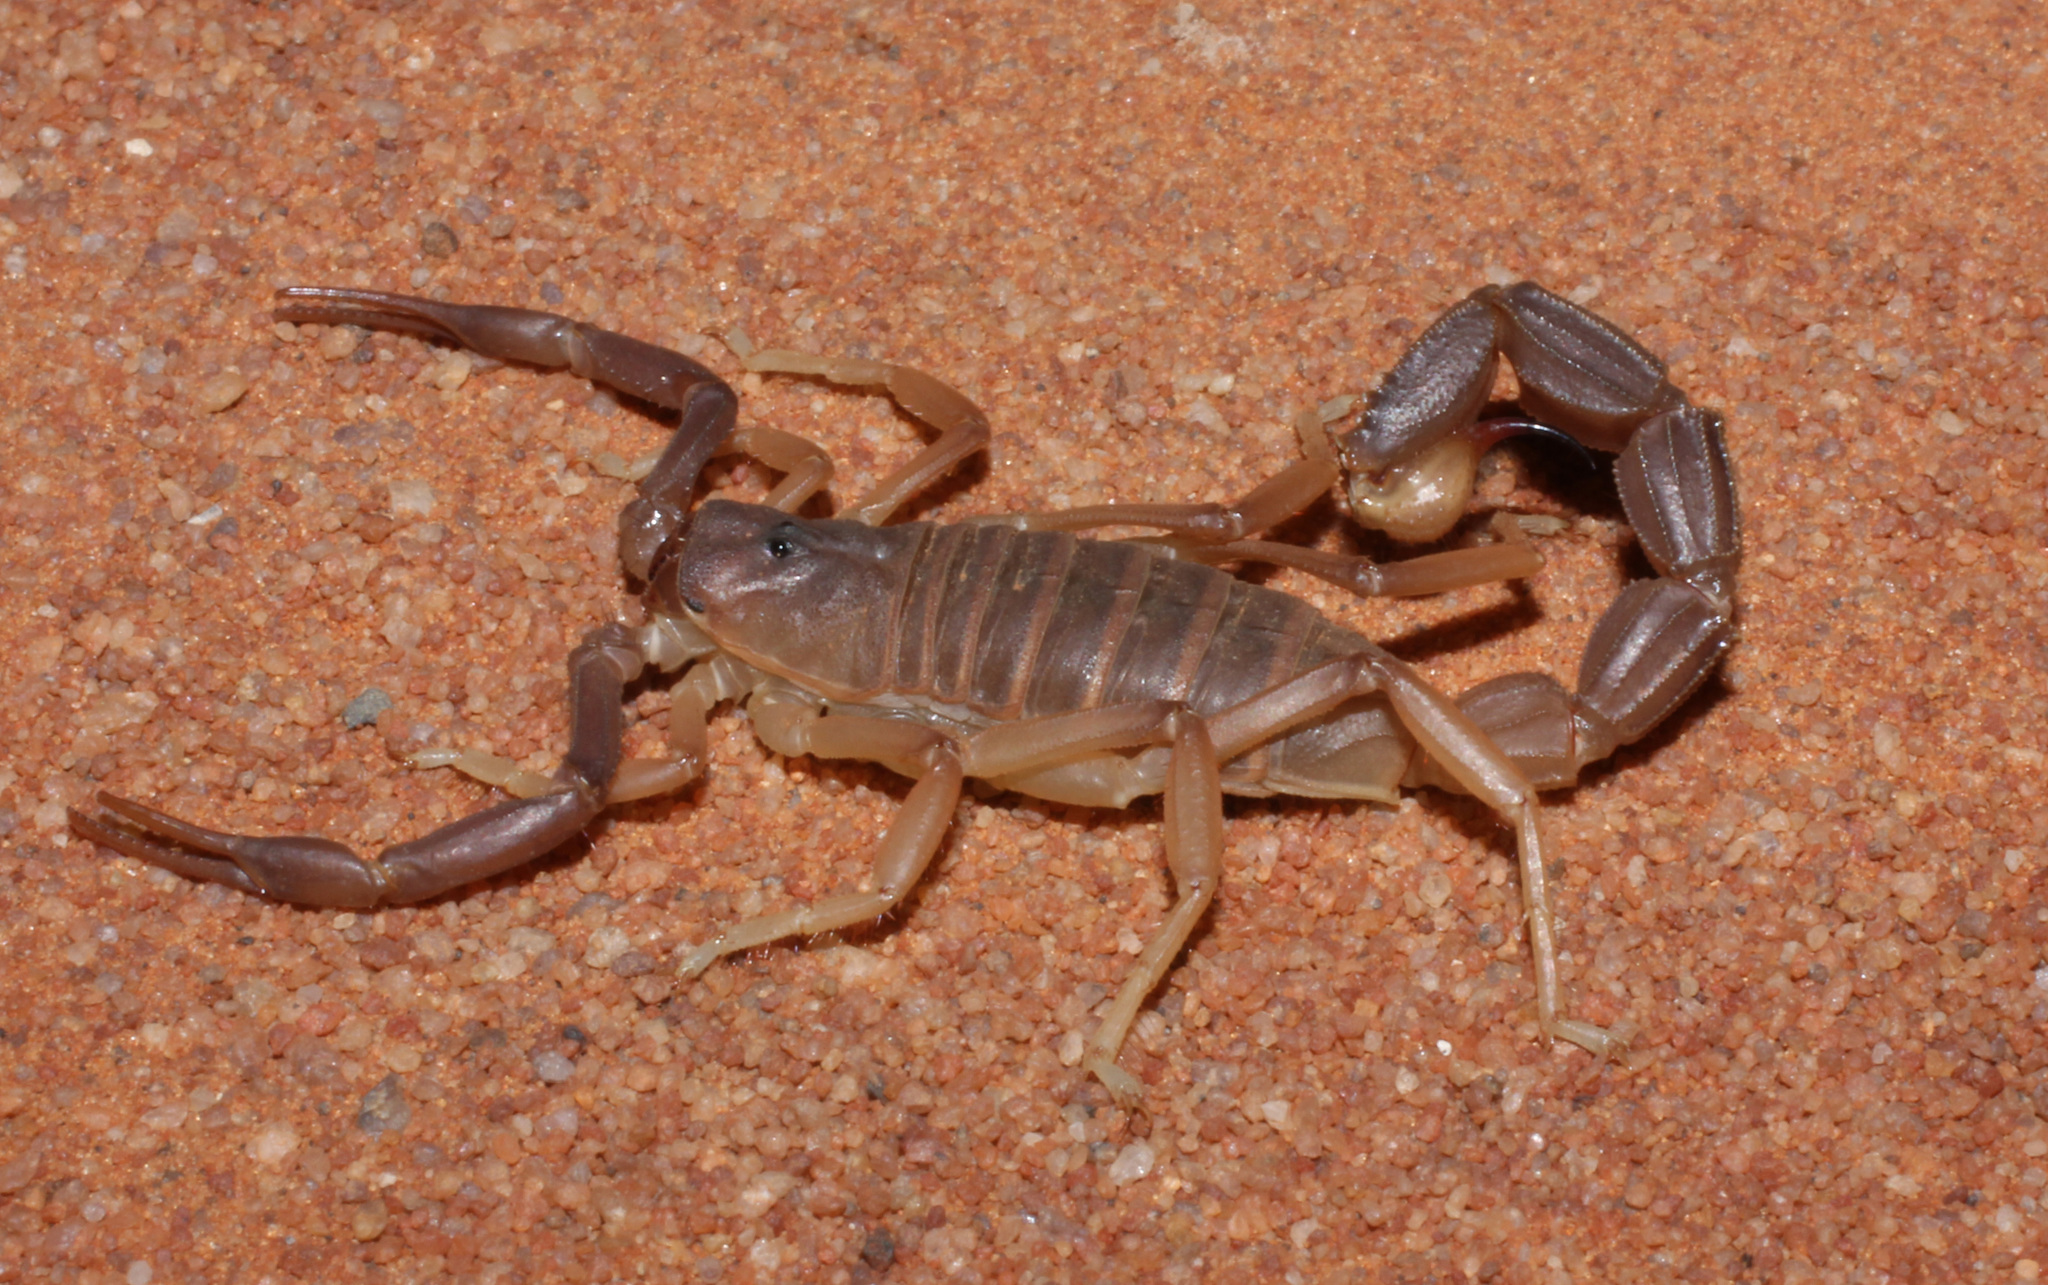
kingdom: Animalia
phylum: Arthropoda
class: Arachnida
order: Scorpiones
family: Buthidae
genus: Parabuthus
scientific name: Parabuthus granulatus
